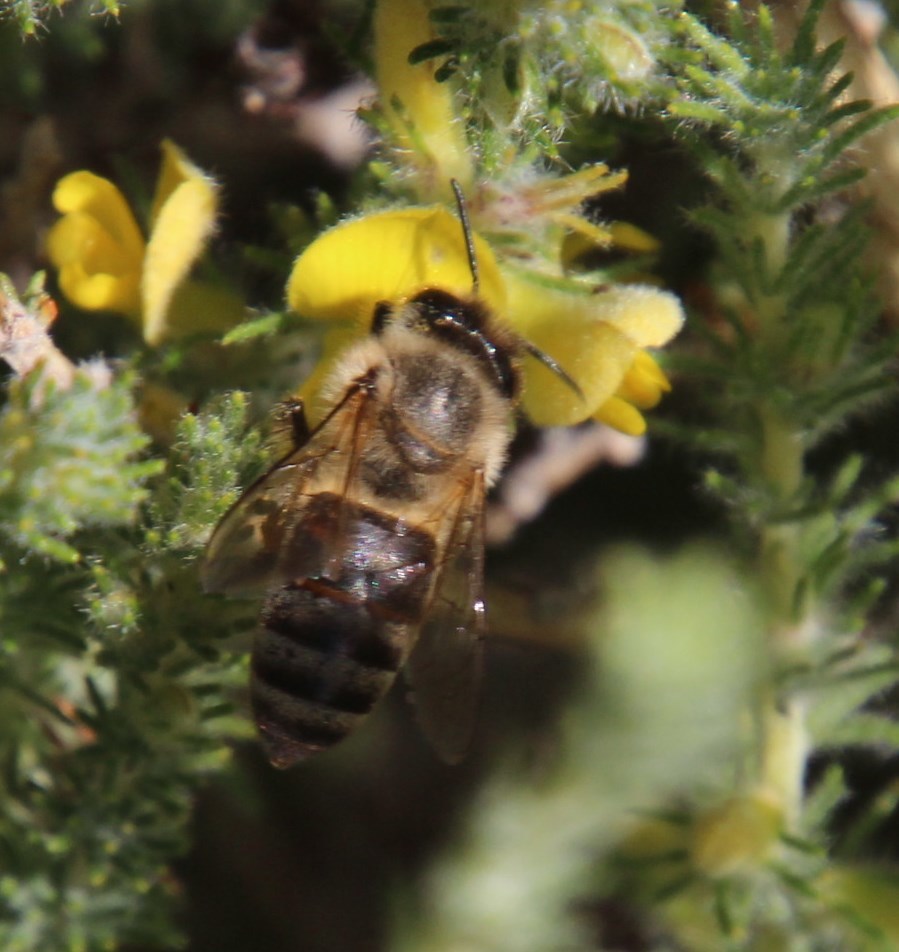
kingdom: Animalia
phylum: Arthropoda
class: Insecta
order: Hymenoptera
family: Apidae
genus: Apis
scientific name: Apis mellifera
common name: Honey bee
